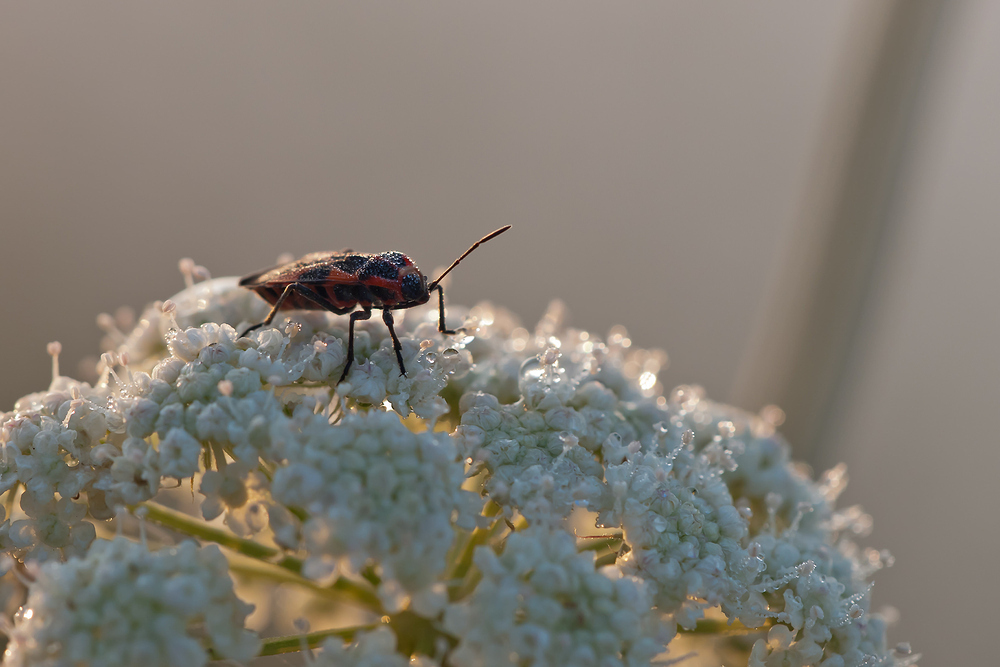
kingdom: Animalia
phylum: Arthropoda
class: Insecta
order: Hemiptera
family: Lygaeidae
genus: Tropidothorax
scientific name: Tropidothorax leucopterus
